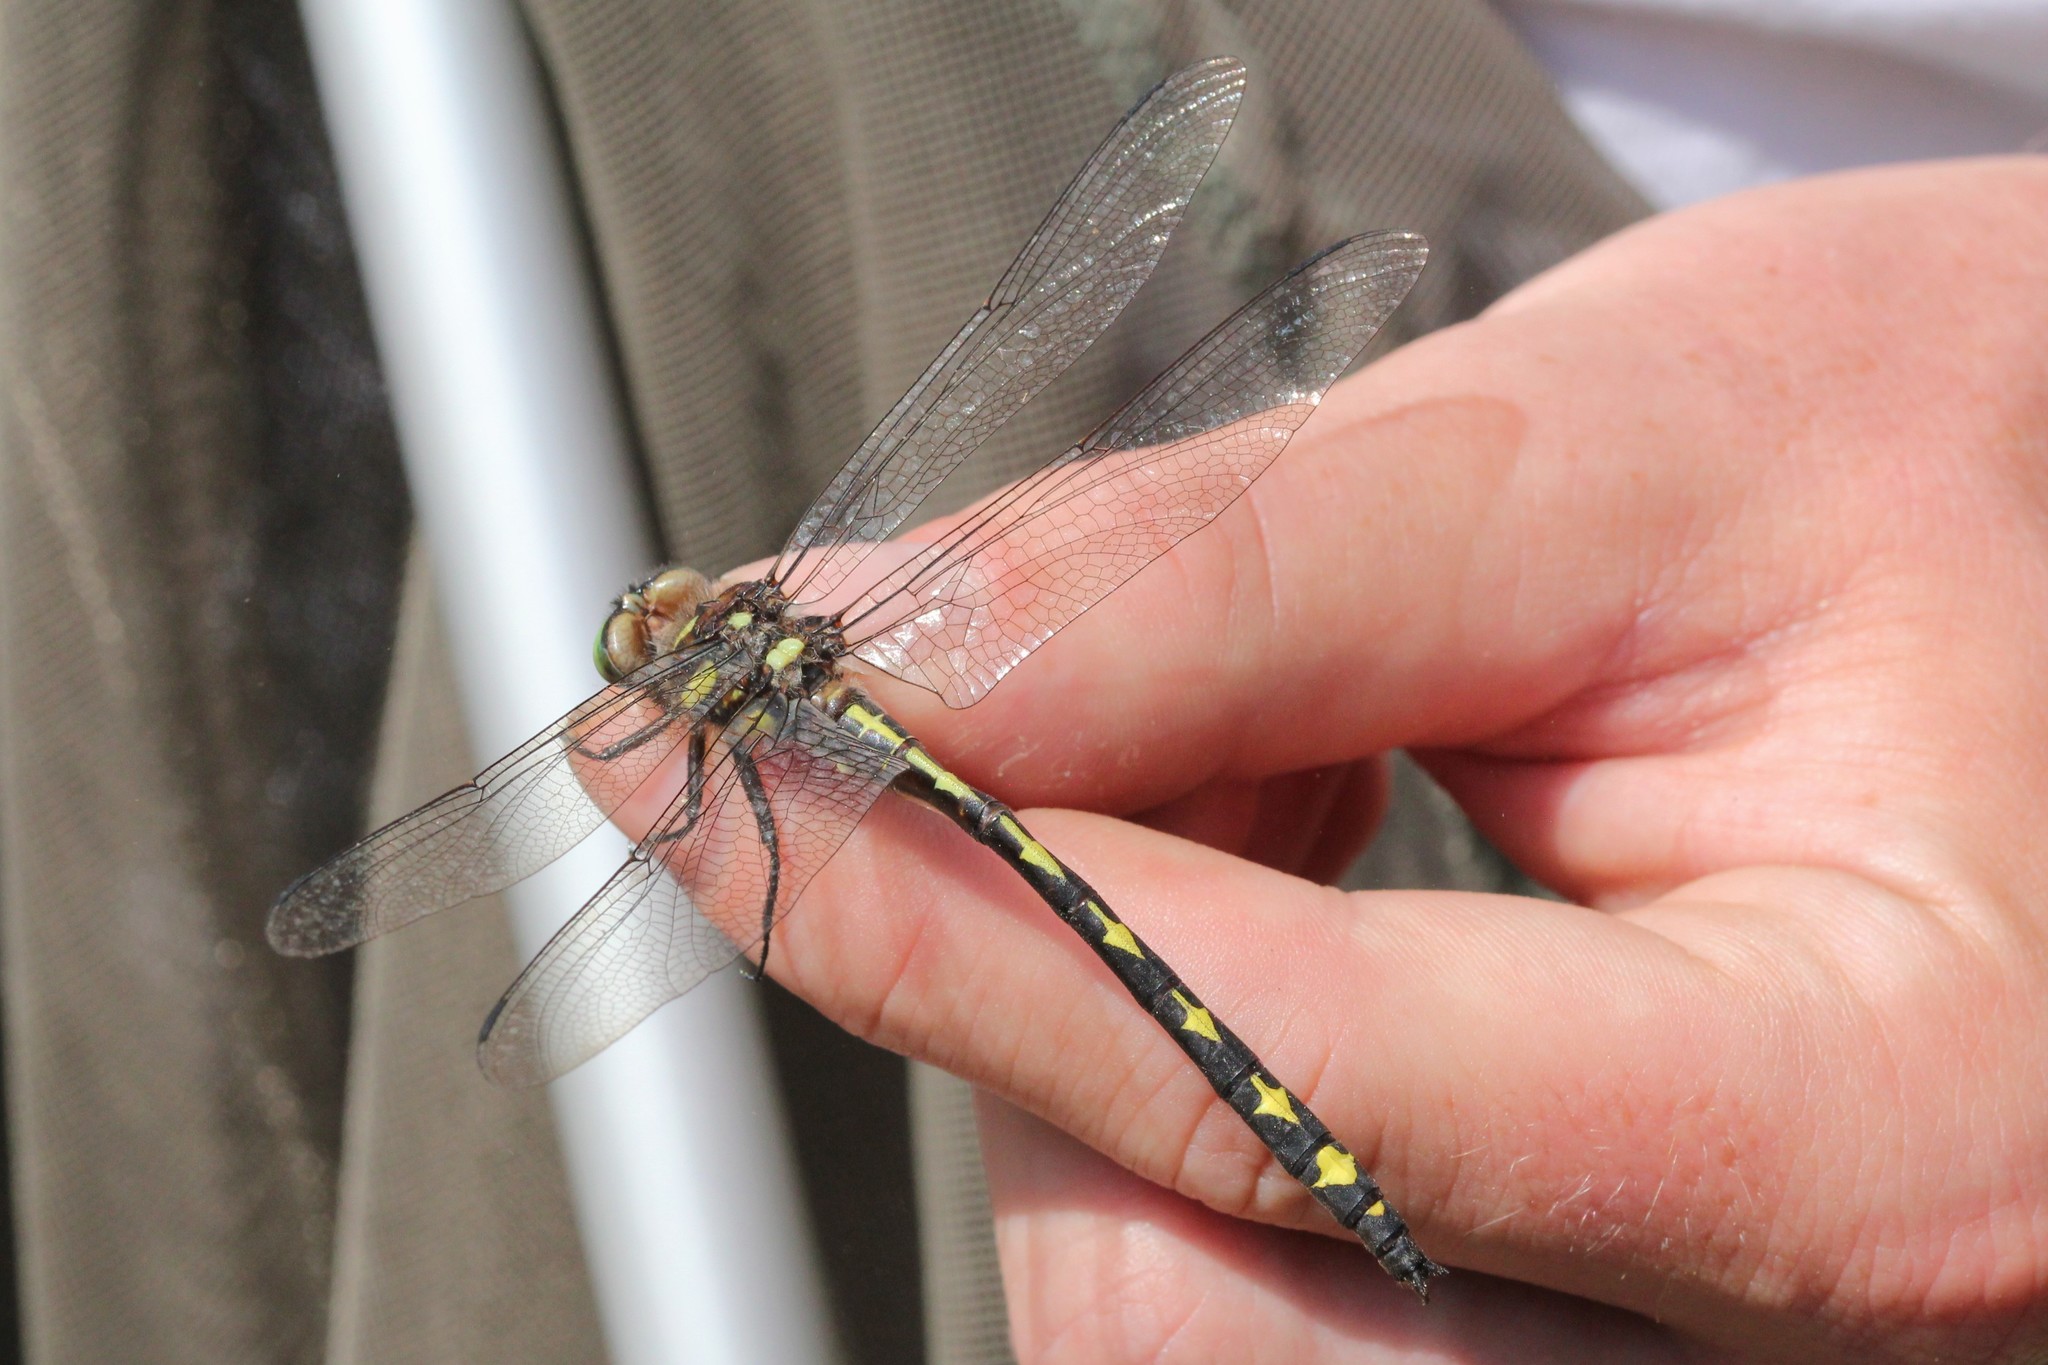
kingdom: Animalia
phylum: Arthropoda
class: Insecta
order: Odonata
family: Cordulegastridae
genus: Cordulegaster
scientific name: Cordulegaster obliqua
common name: Arrowhead spiketail
